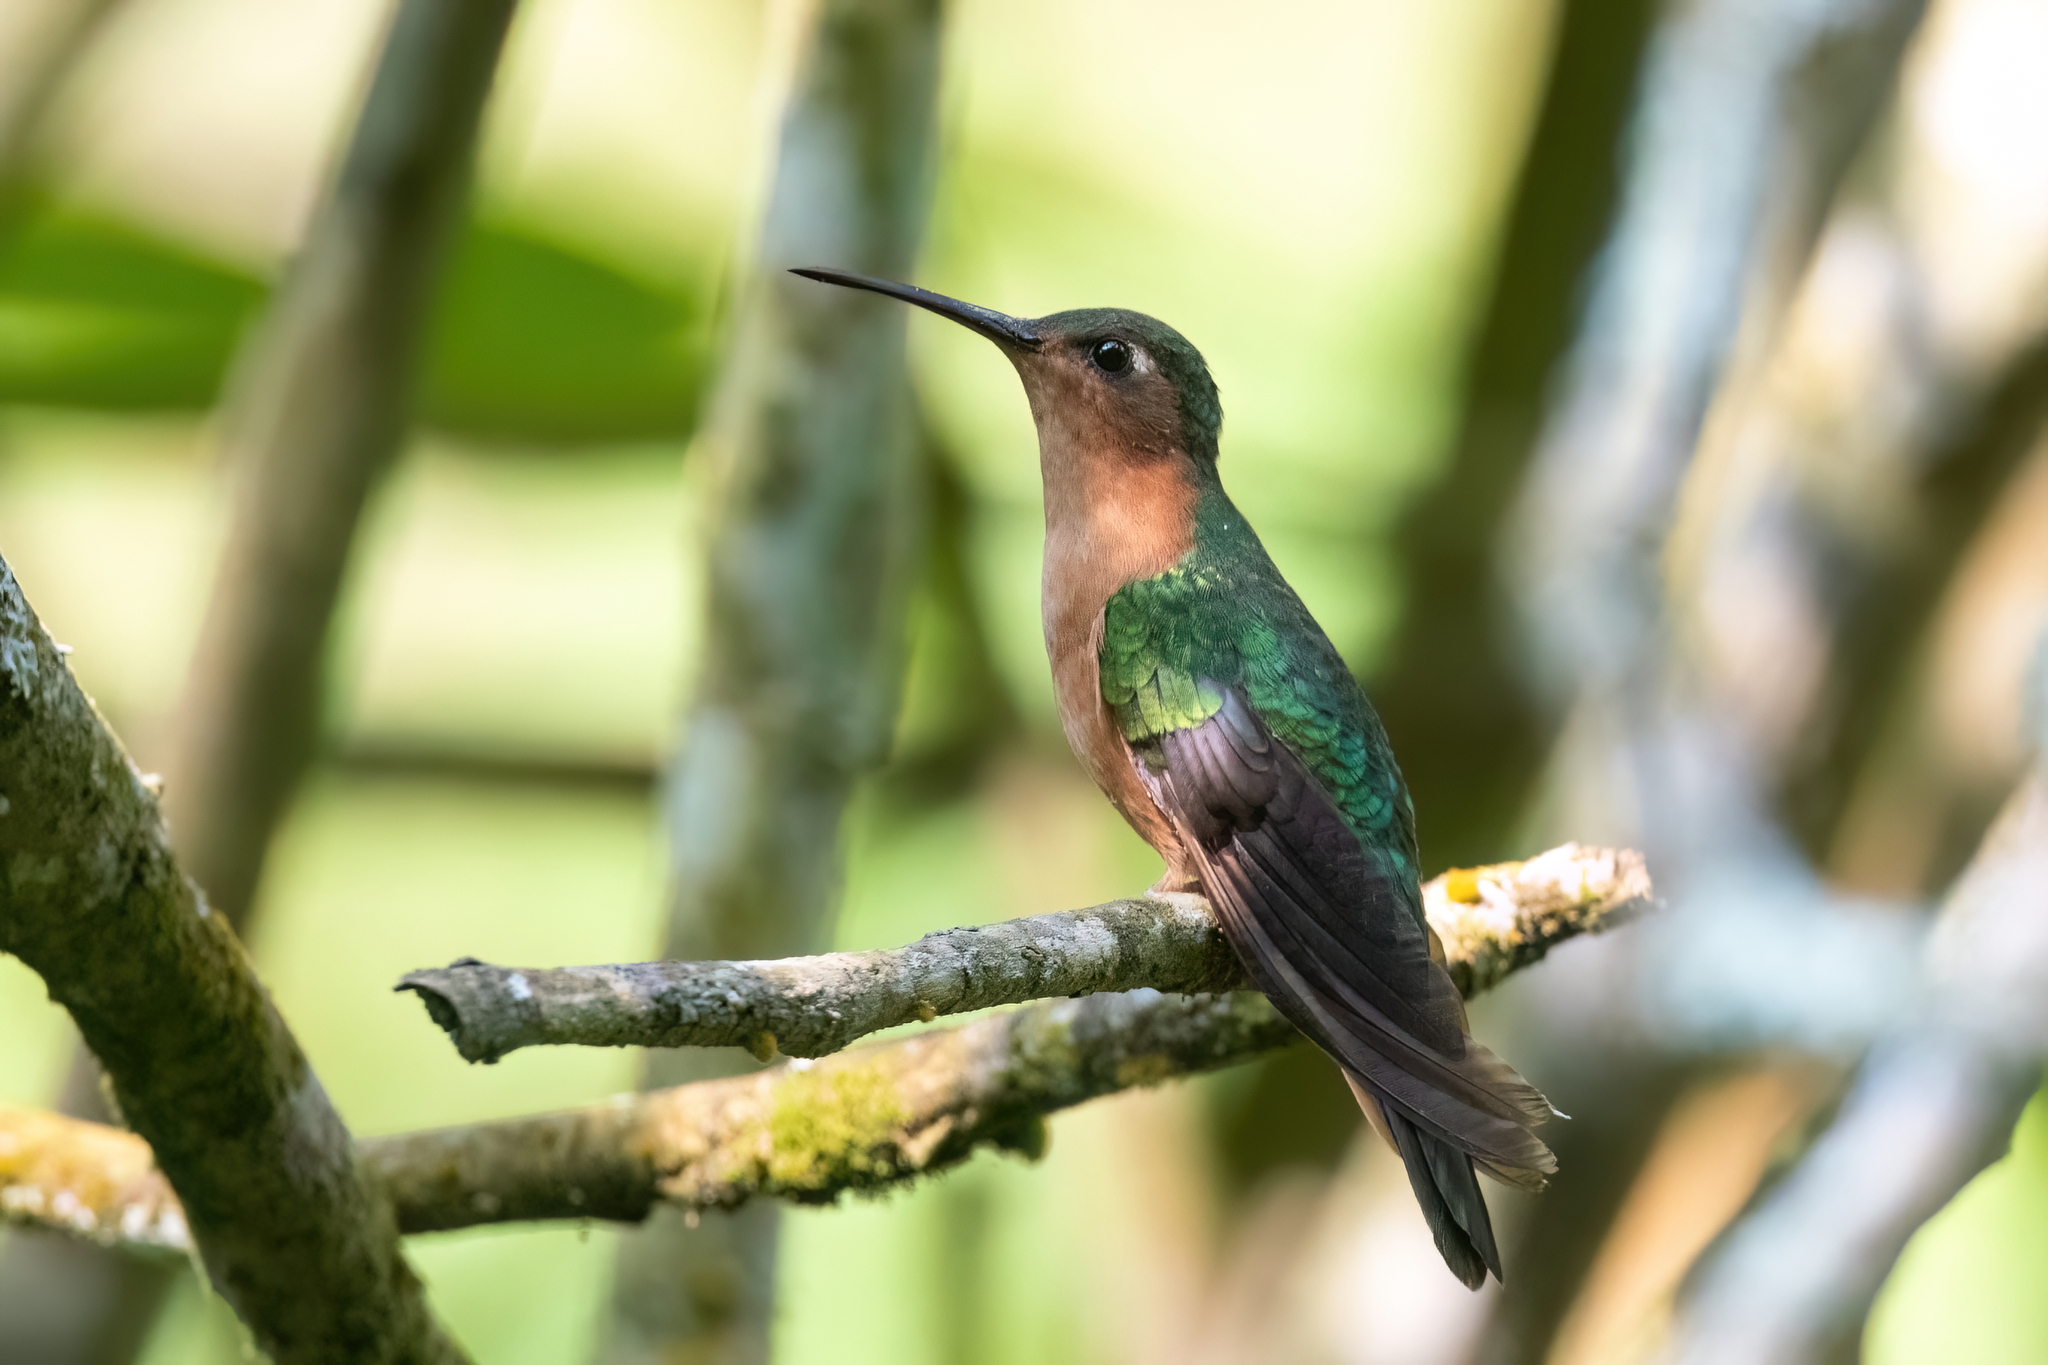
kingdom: Animalia
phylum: Chordata
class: Aves
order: Apodiformes
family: Trochilidae
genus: Pampa
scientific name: Pampa rufa
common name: Rufous sabrewing
